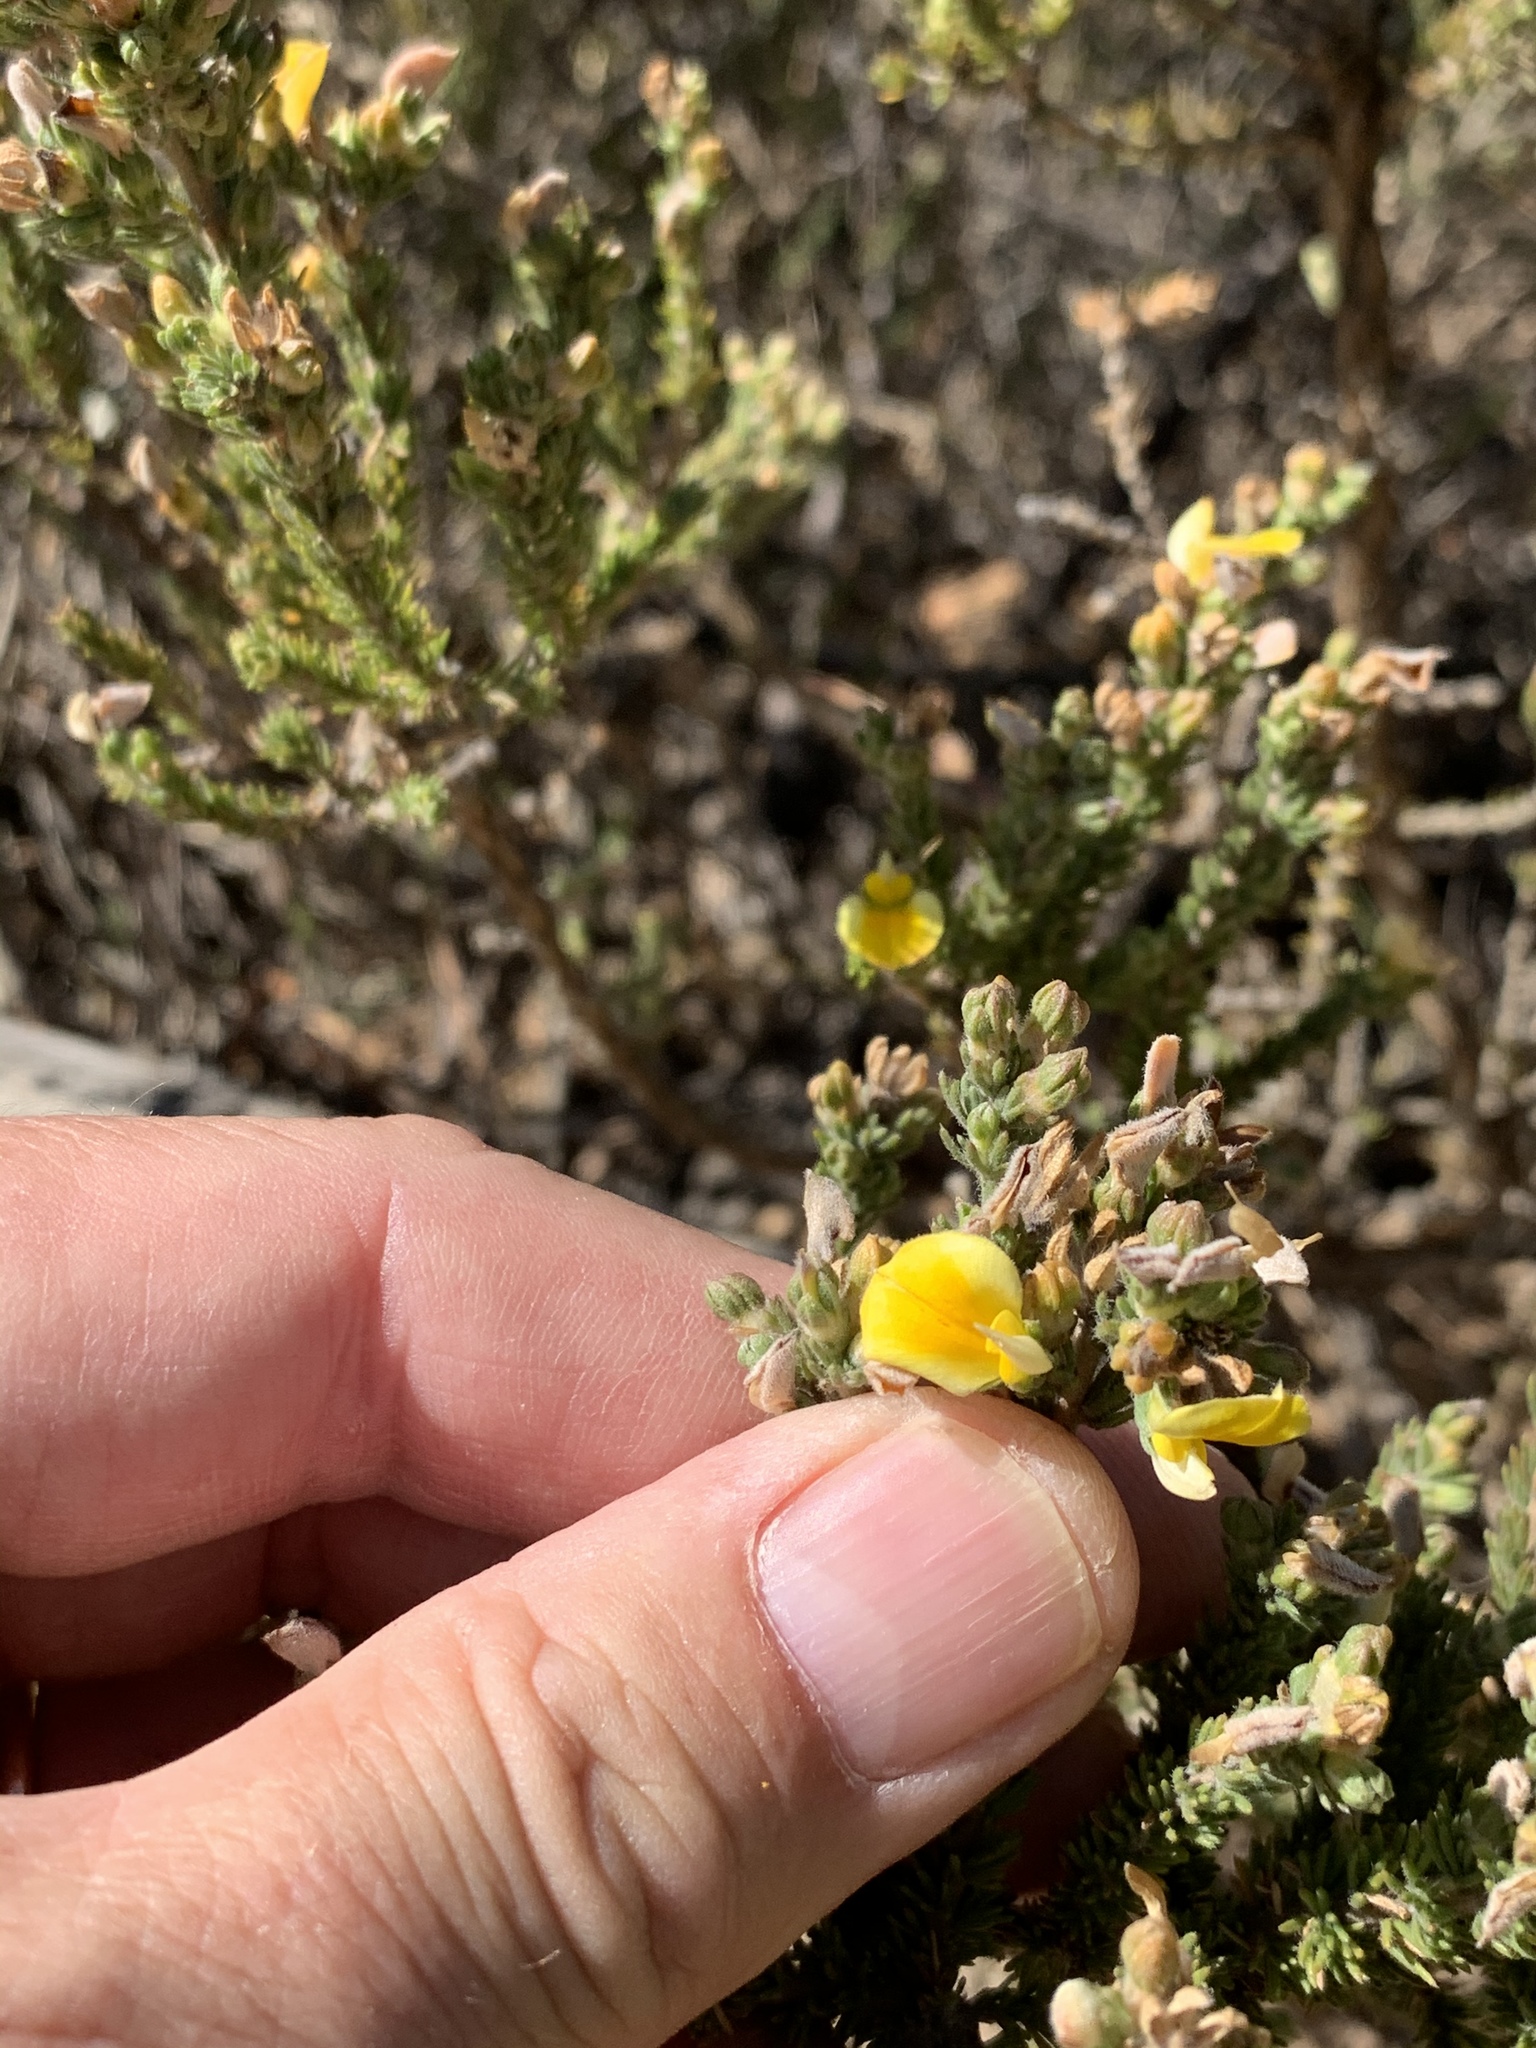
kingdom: Plantae
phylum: Tracheophyta
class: Magnoliopsida
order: Fabales
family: Fabaceae
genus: Aspalathus
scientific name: Aspalathus cymbiformis
